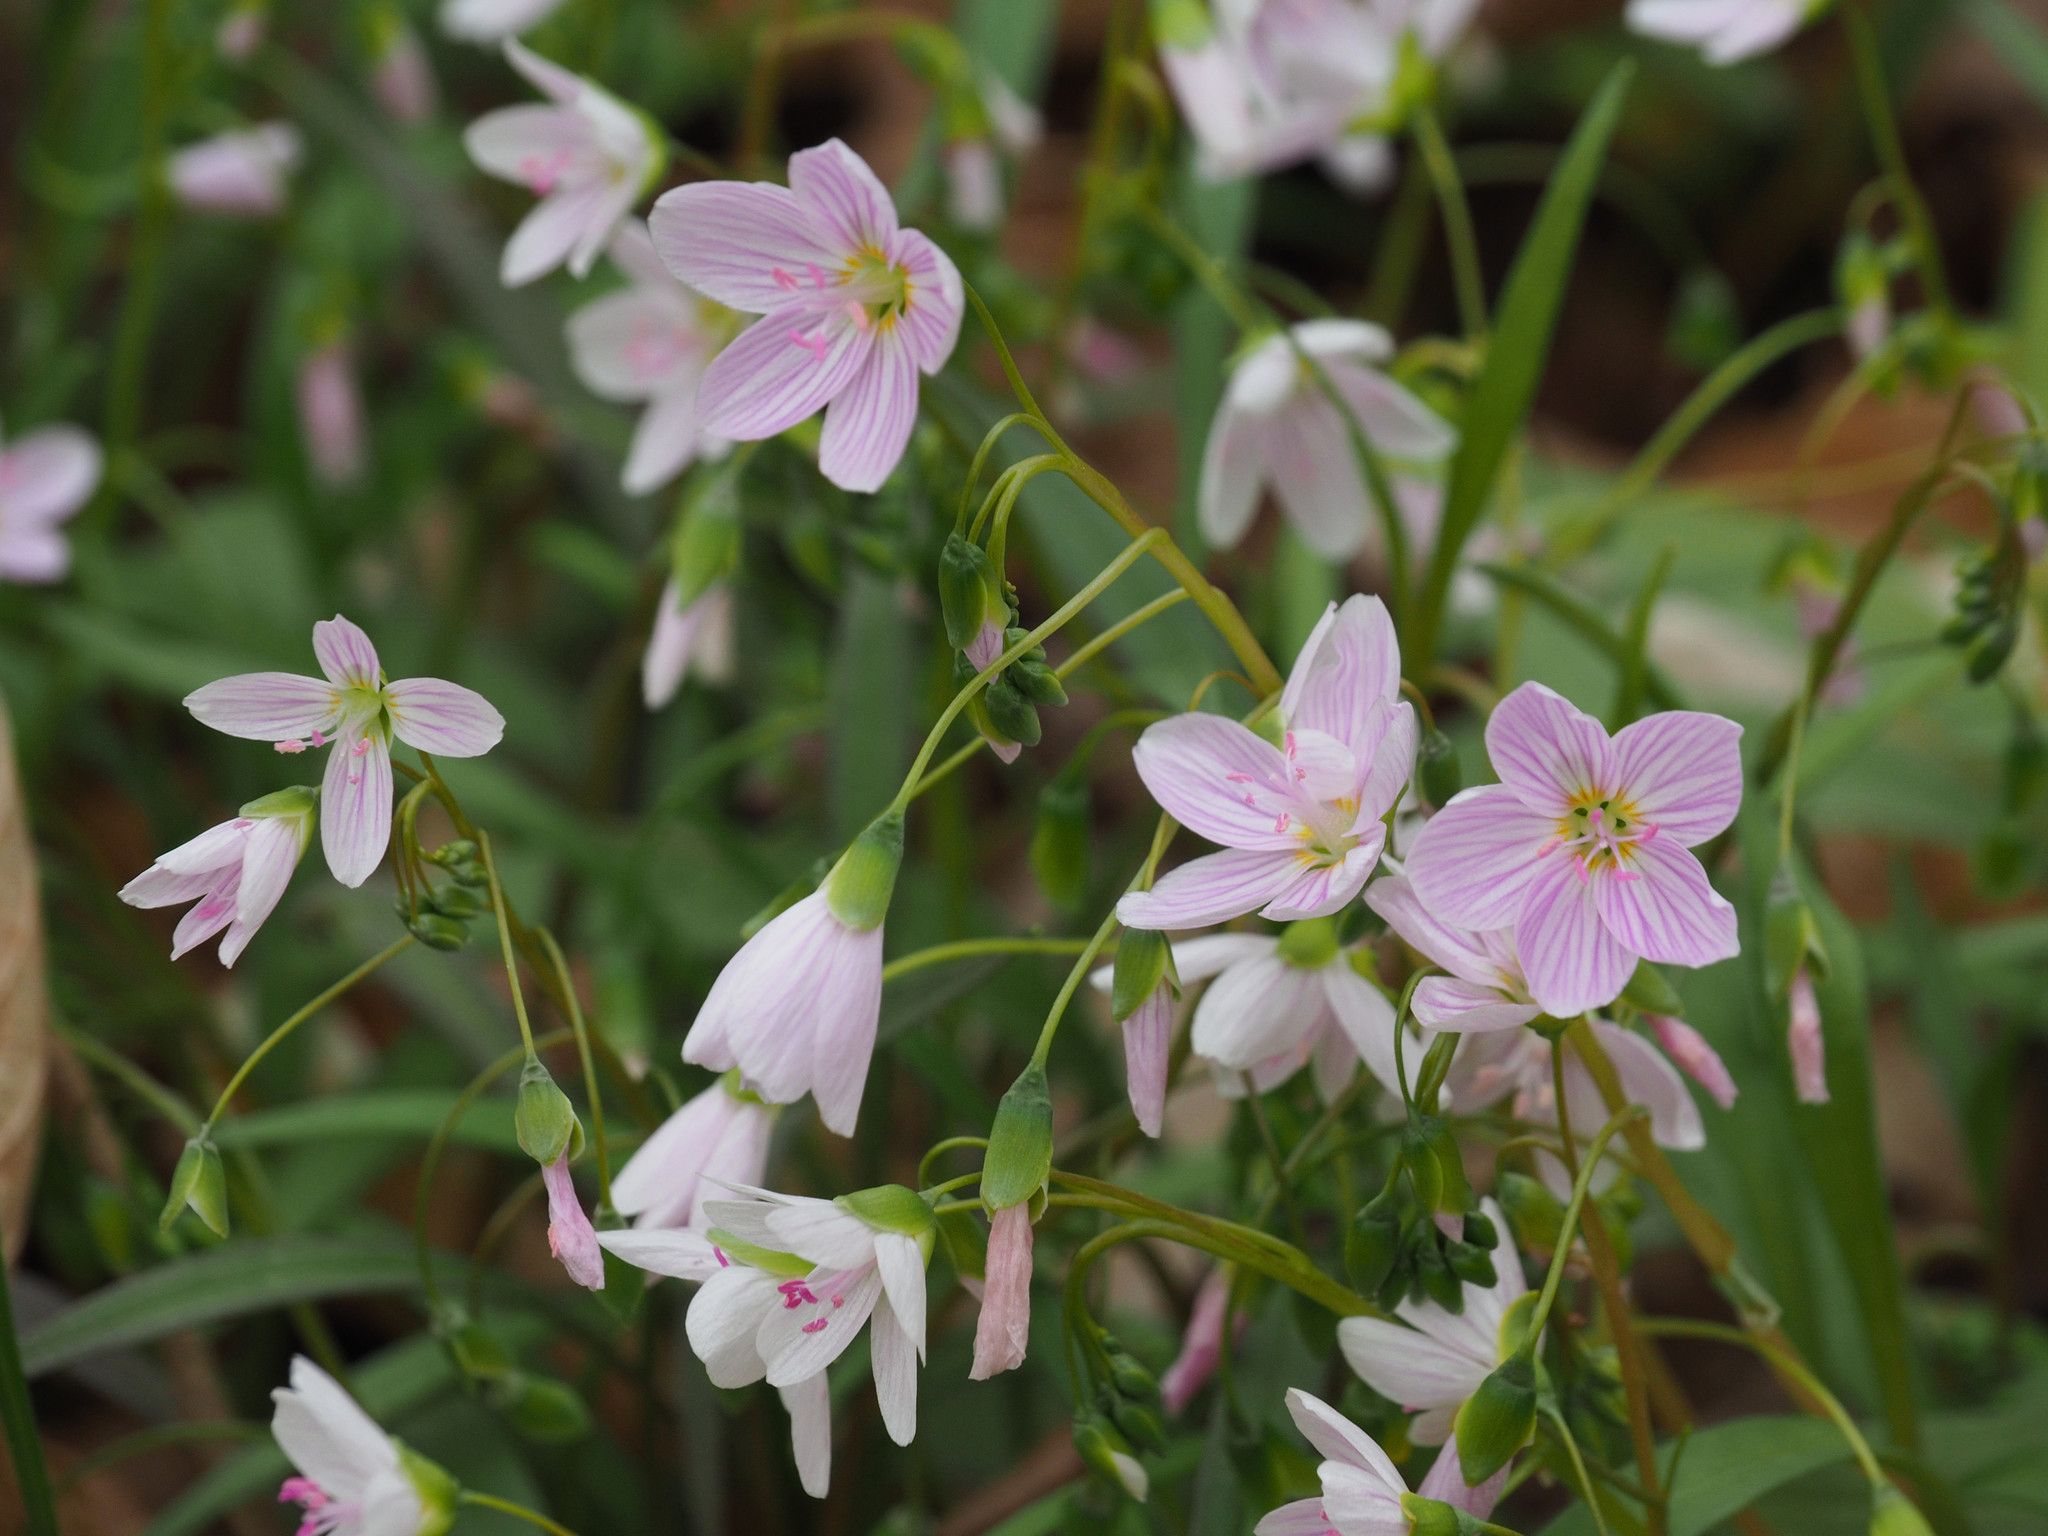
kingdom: Plantae
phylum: Tracheophyta
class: Magnoliopsida
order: Caryophyllales
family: Montiaceae
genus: Claytonia
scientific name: Claytonia virginica
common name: Virginia springbeauty
